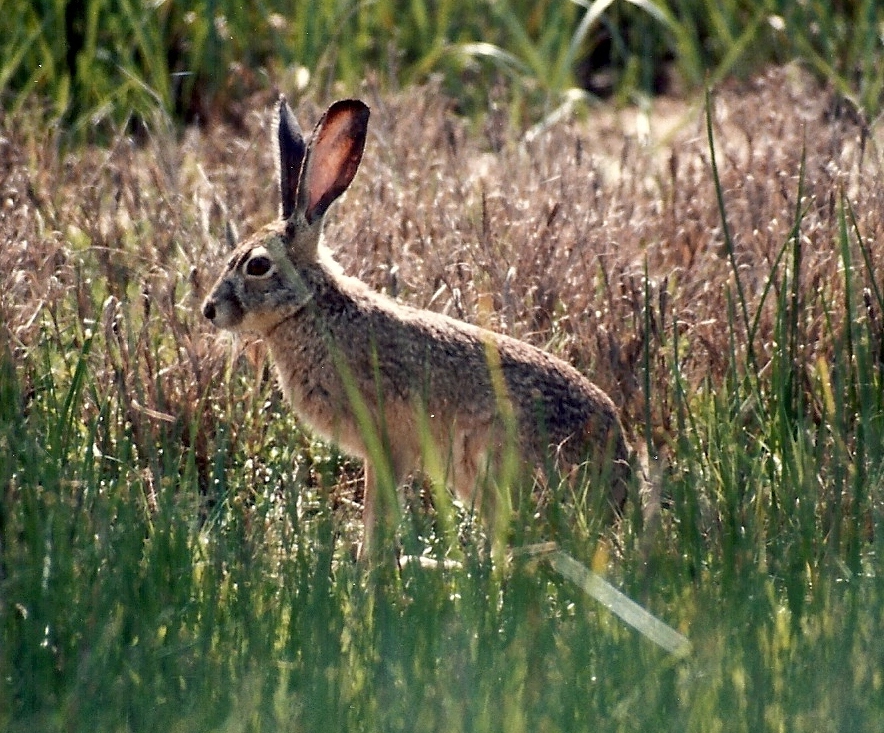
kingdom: Animalia
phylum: Chordata
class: Mammalia
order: Lagomorpha
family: Leporidae
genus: Lepus
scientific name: Lepus californicus
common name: Black-tailed jackrabbit
